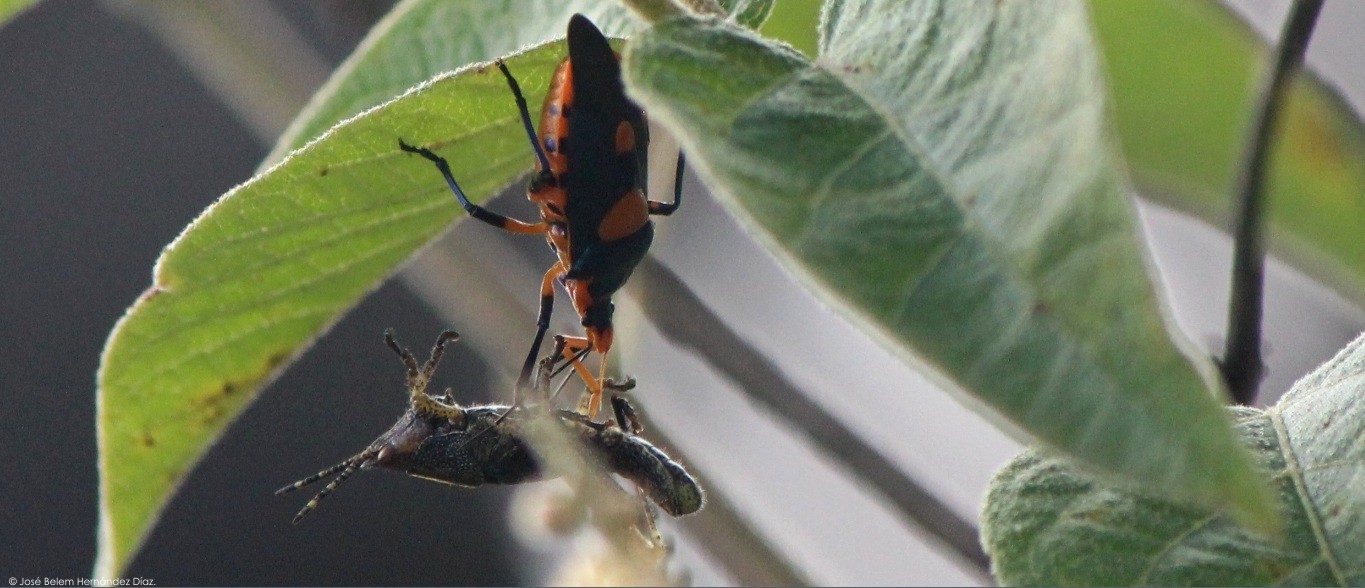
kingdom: Animalia
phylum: Arthropoda
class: Insecta
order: Hemiptera
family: Pentatomidae
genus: Euthyrhynchus
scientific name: Euthyrhynchus floridanus
